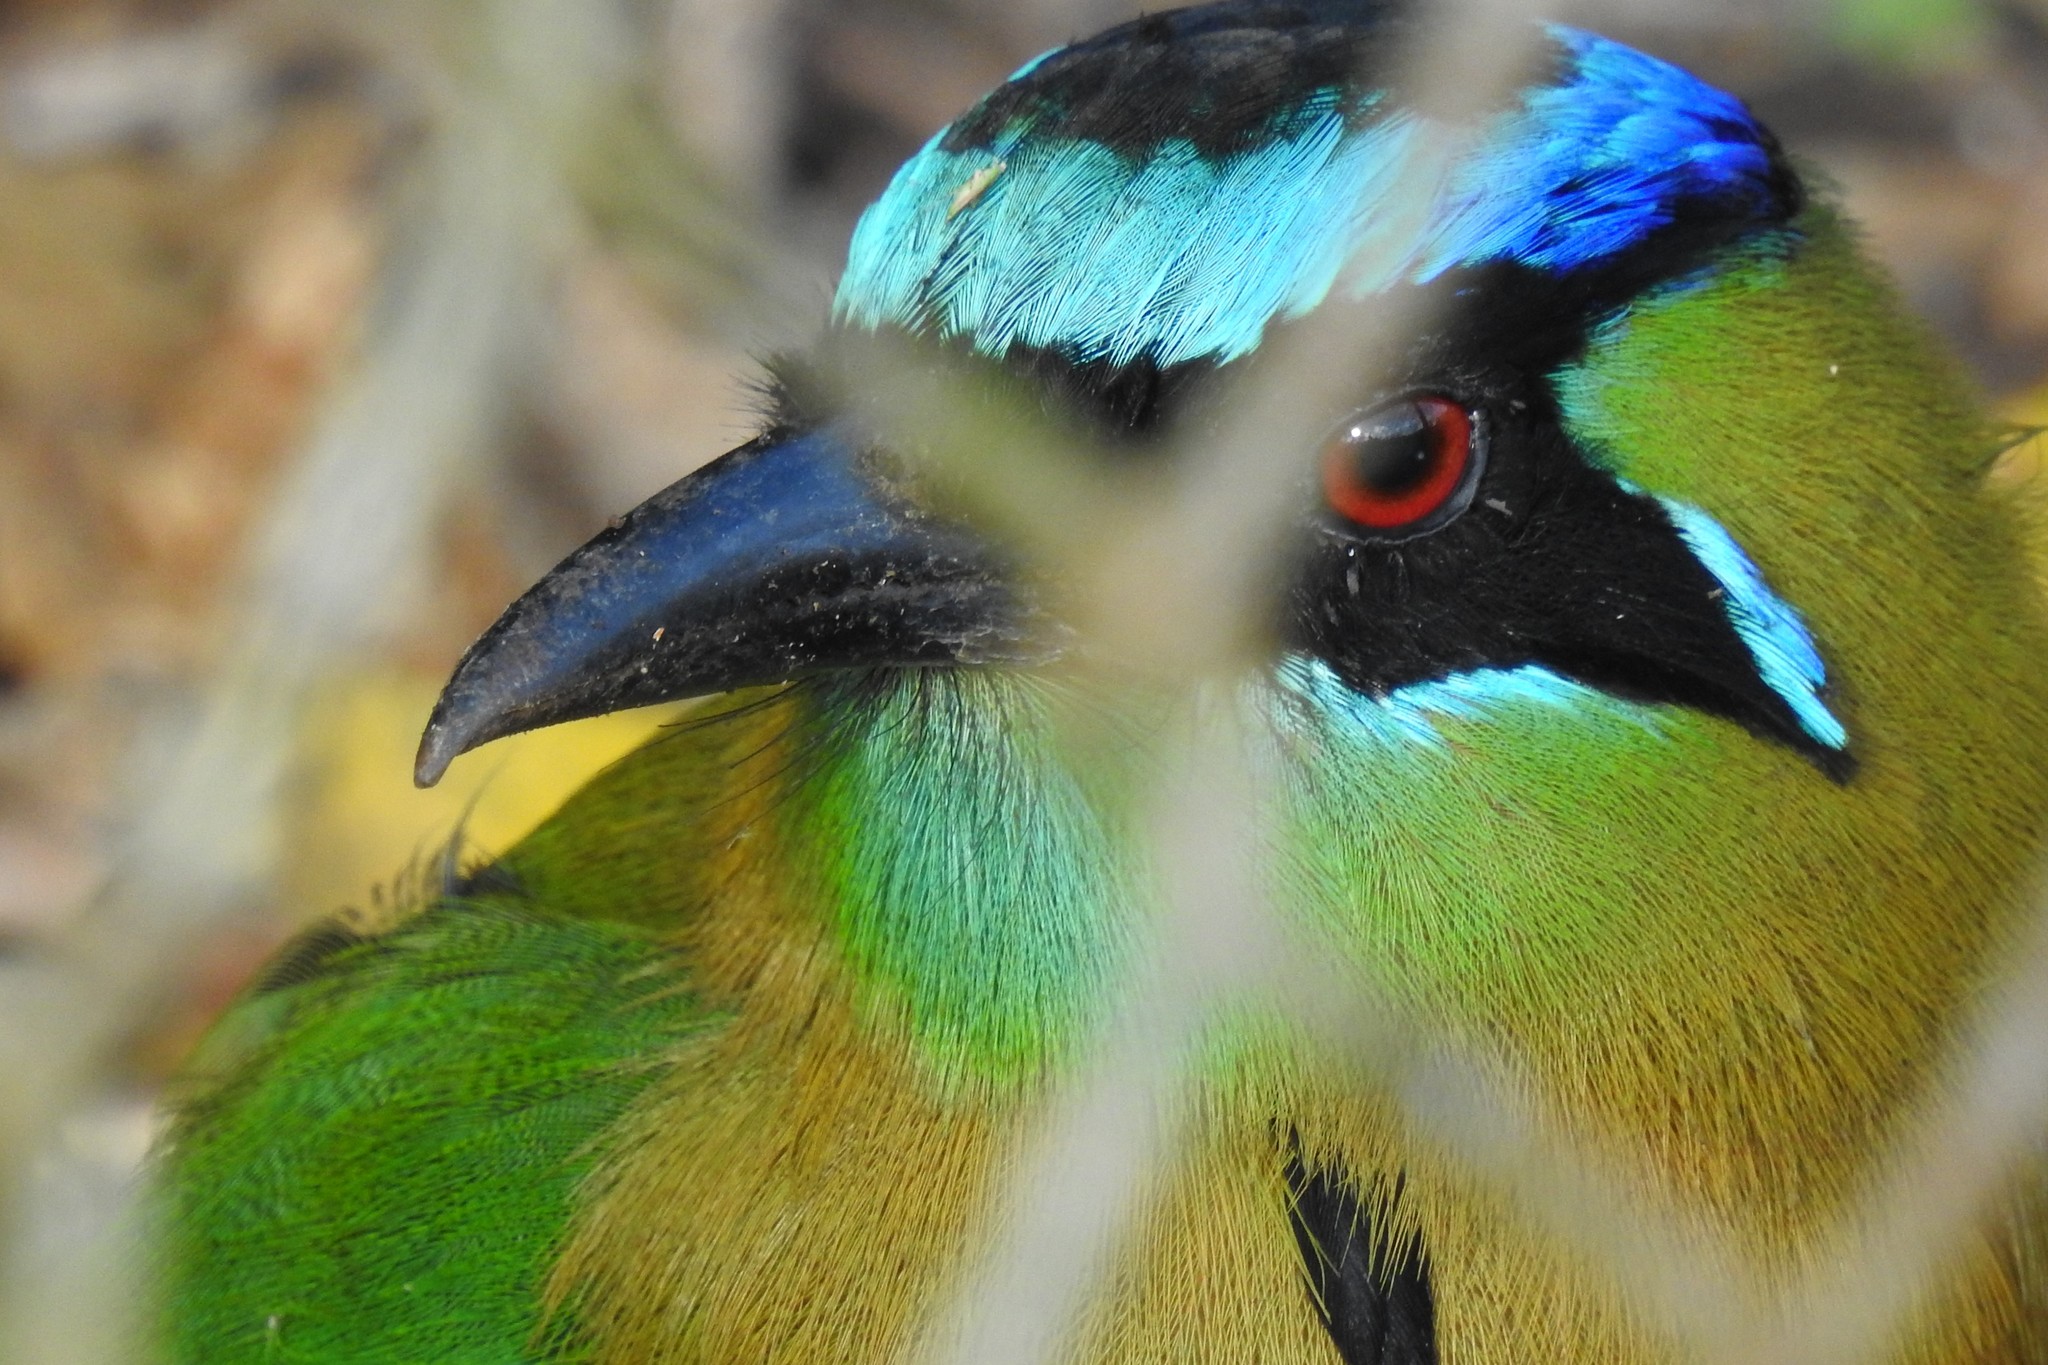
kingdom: Animalia
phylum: Chordata
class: Aves
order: Coraciiformes
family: Momotidae
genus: Momotus
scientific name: Momotus lessonii
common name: Lesson's motmot
